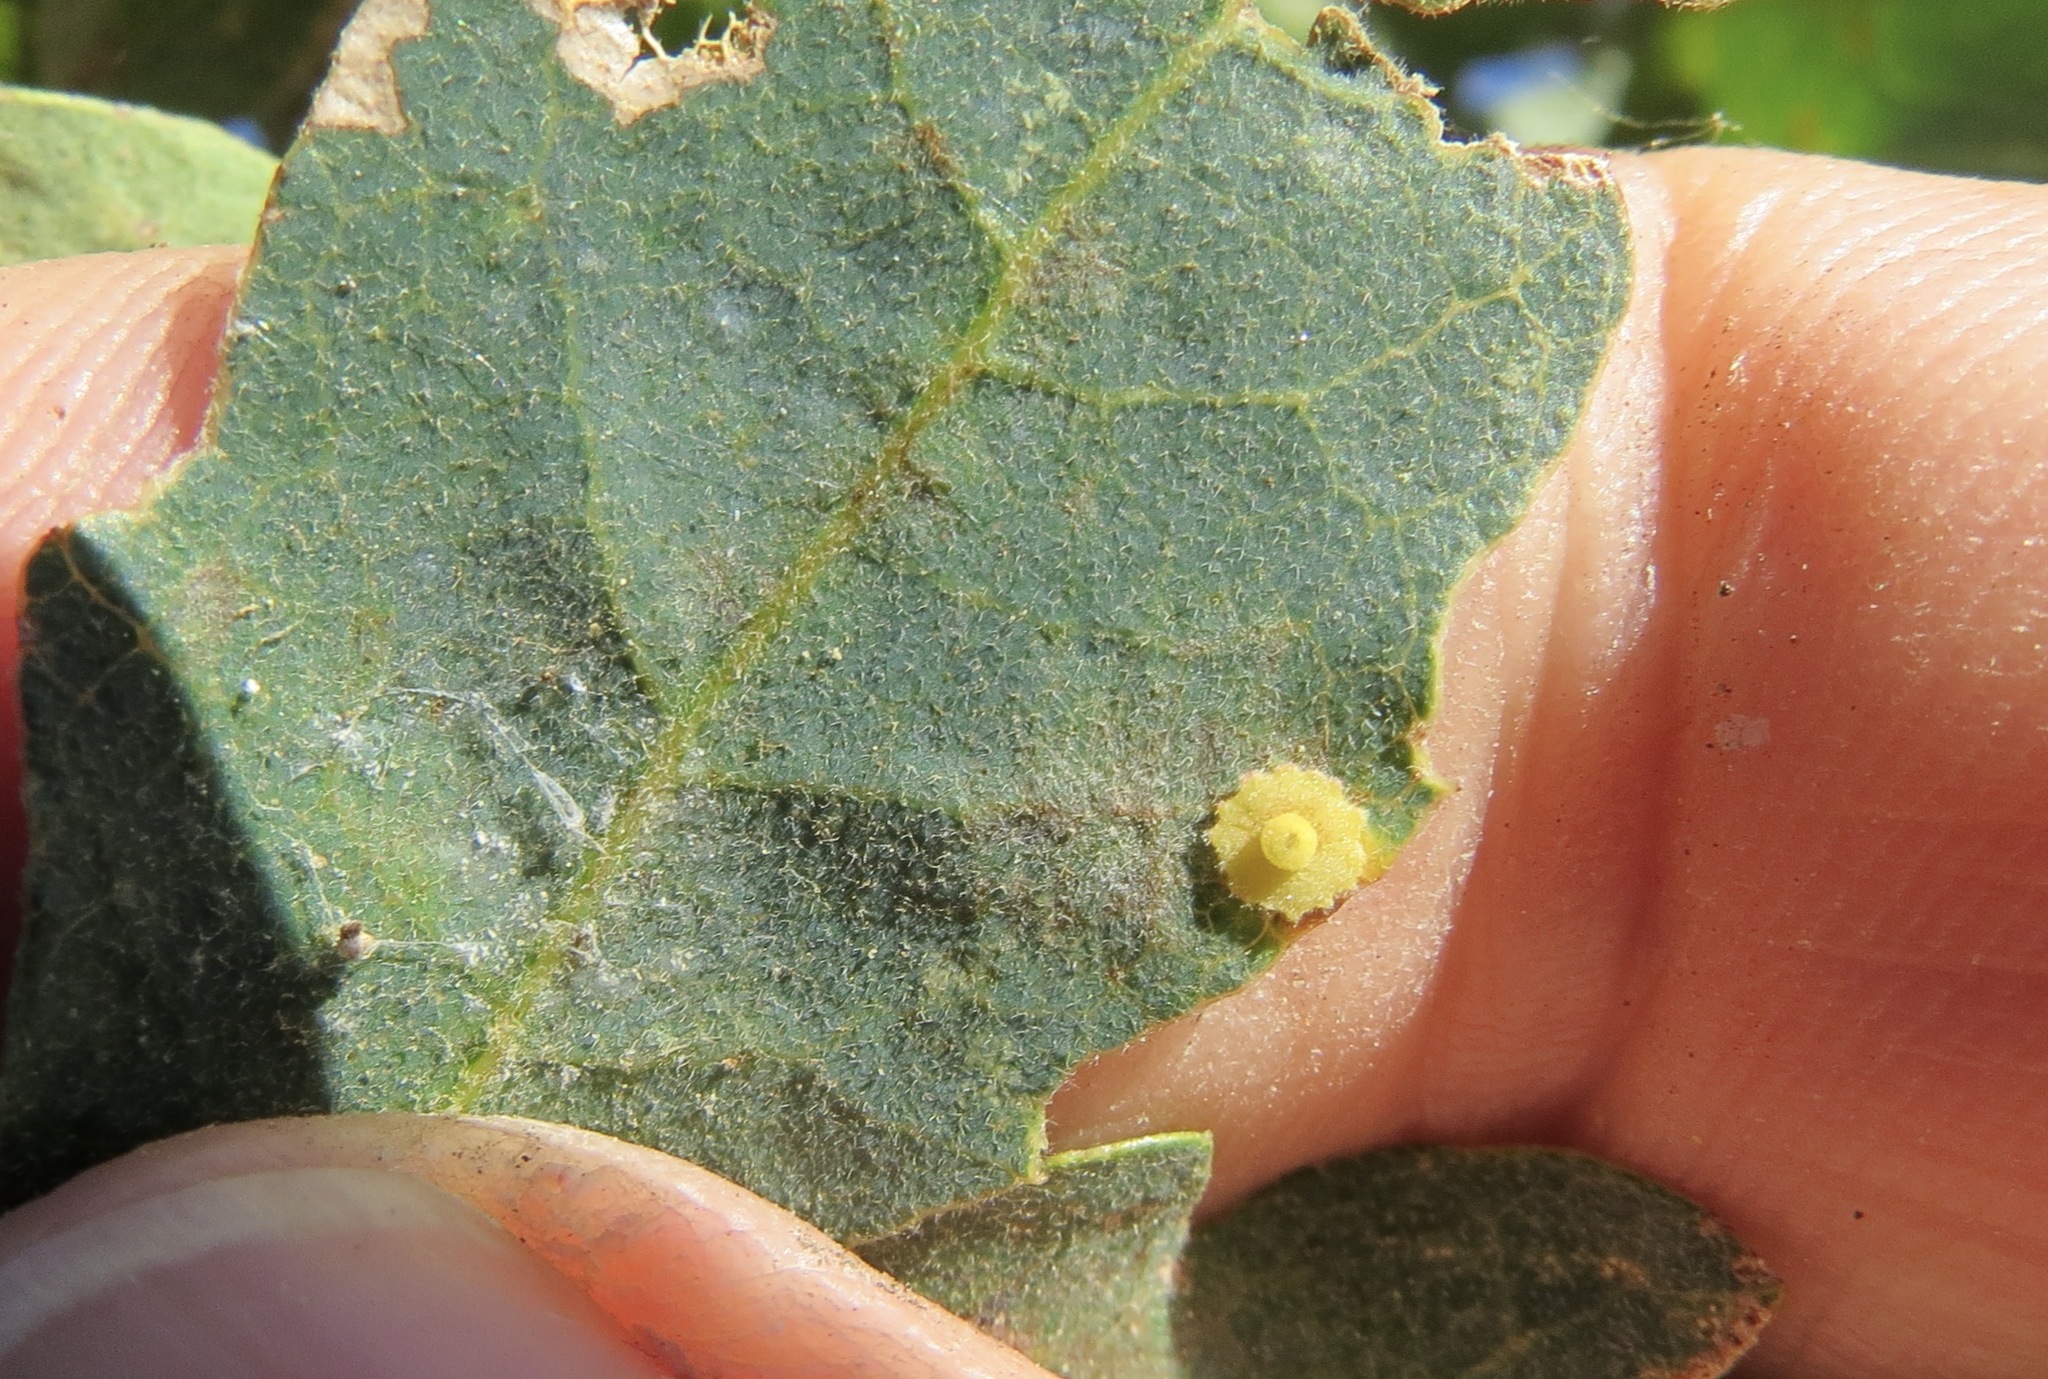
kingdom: Animalia
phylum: Arthropoda
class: Insecta
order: Hymenoptera
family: Cynipidae
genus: Andricus
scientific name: Andricus
